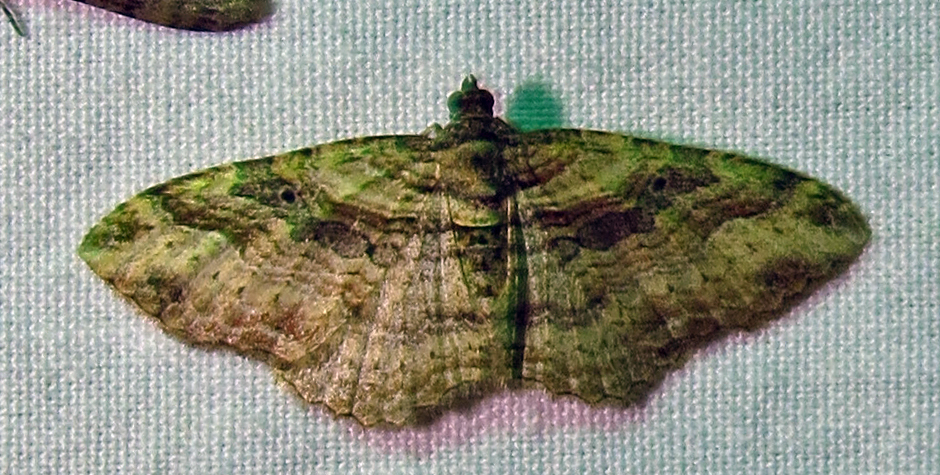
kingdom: Animalia
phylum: Arthropoda
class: Insecta
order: Lepidoptera
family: Geometridae
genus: Costaconvexa
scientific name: Costaconvexa centrostrigaria
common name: Bent-line carpet
